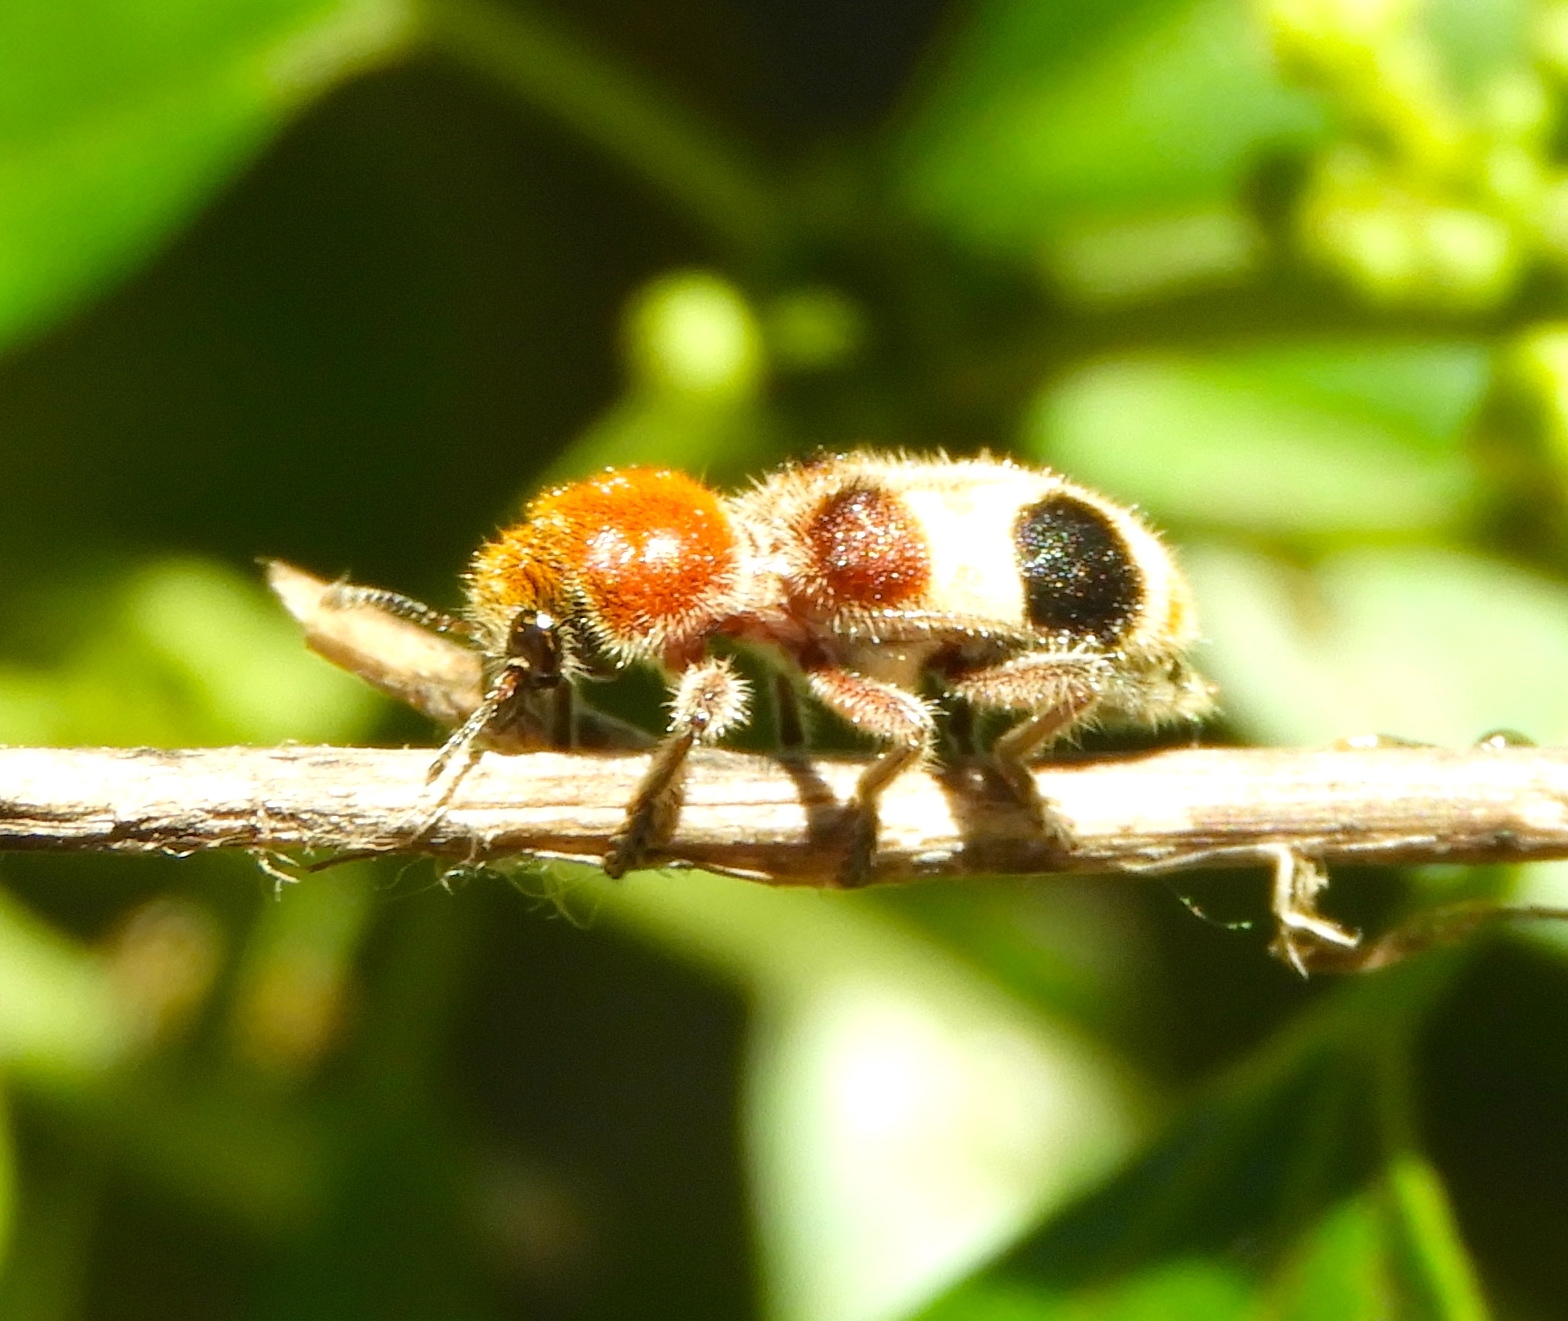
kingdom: Animalia
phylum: Arthropoda
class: Insecta
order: Coleoptera
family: Cleridae
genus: Enoclerus
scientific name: Enoclerus quadriguttatus
